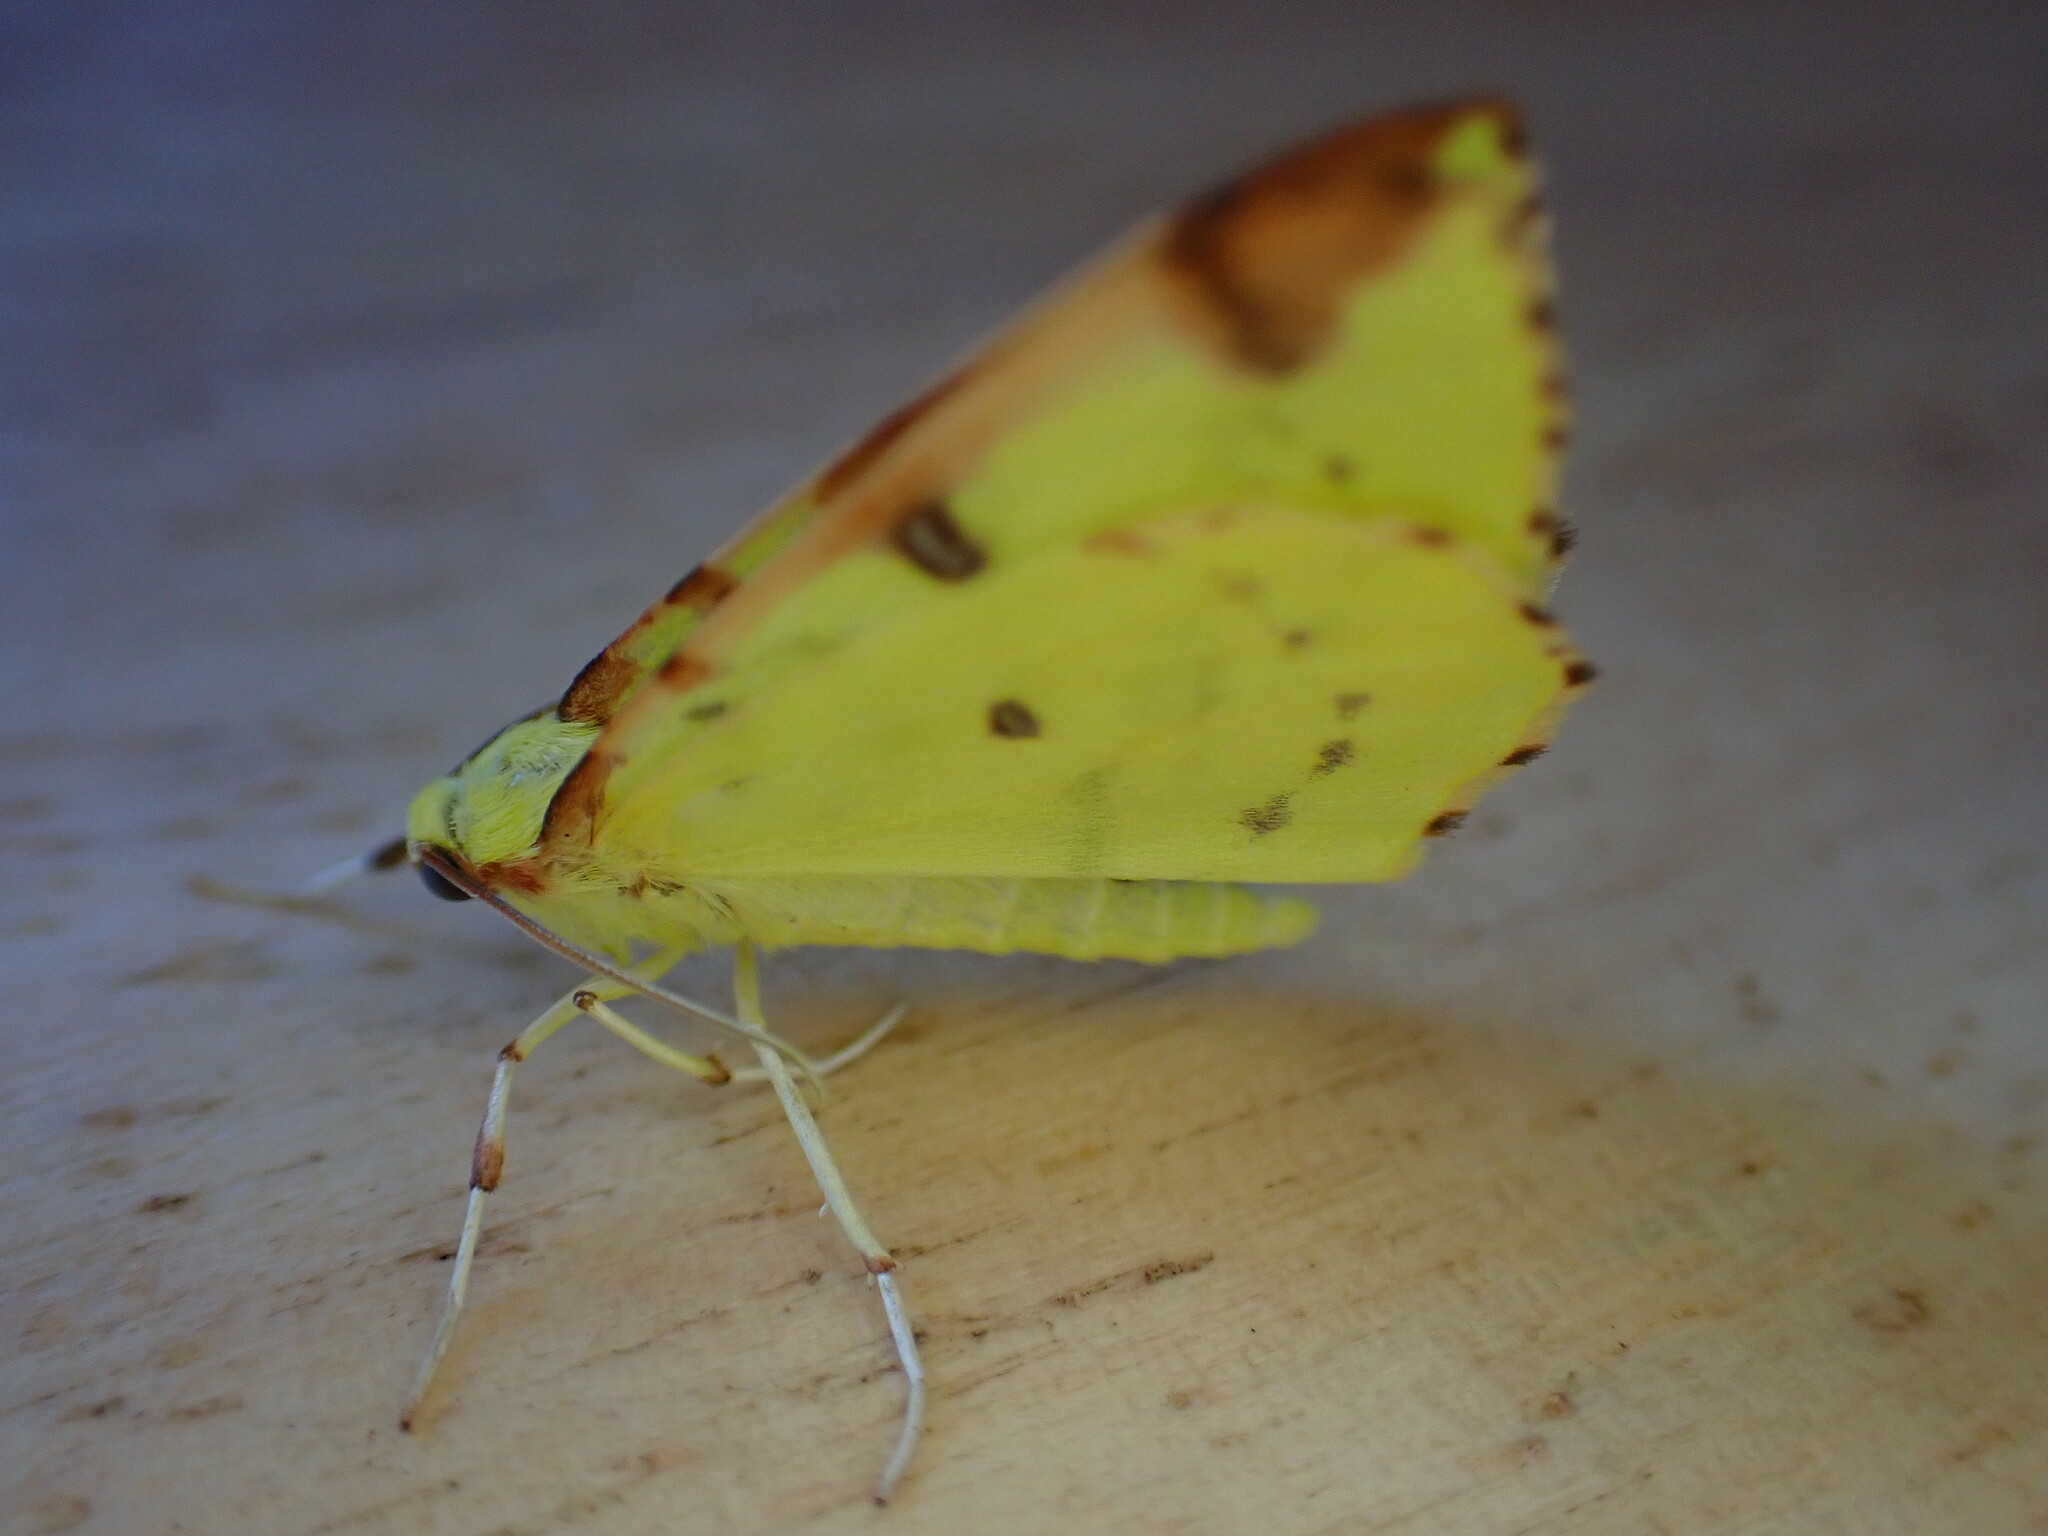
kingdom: Animalia
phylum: Arthropoda
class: Insecta
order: Lepidoptera
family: Geometridae
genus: Opisthograptis
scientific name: Opisthograptis luteolata
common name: Brimstone moth
